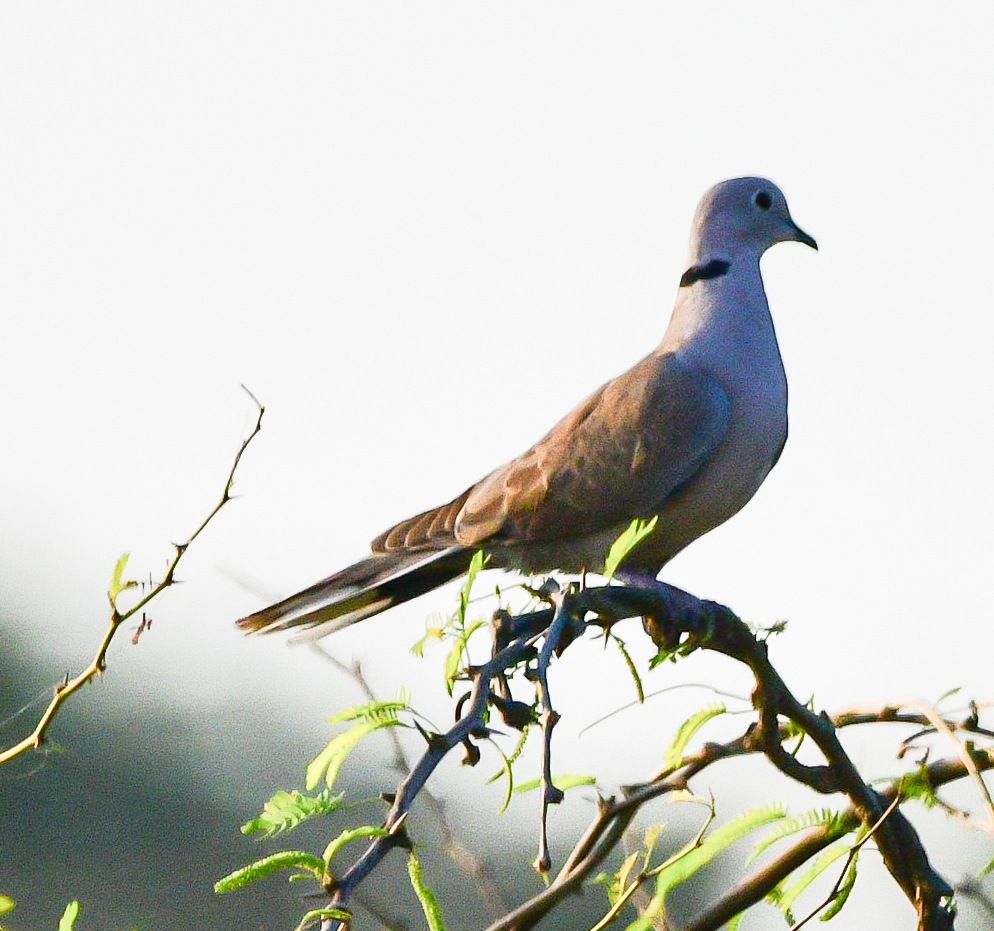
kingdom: Animalia
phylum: Chordata
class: Aves
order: Columbiformes
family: Columbidae
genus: Streptopelia
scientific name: Streptopelia decaocto
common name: Eurasian collared dove
